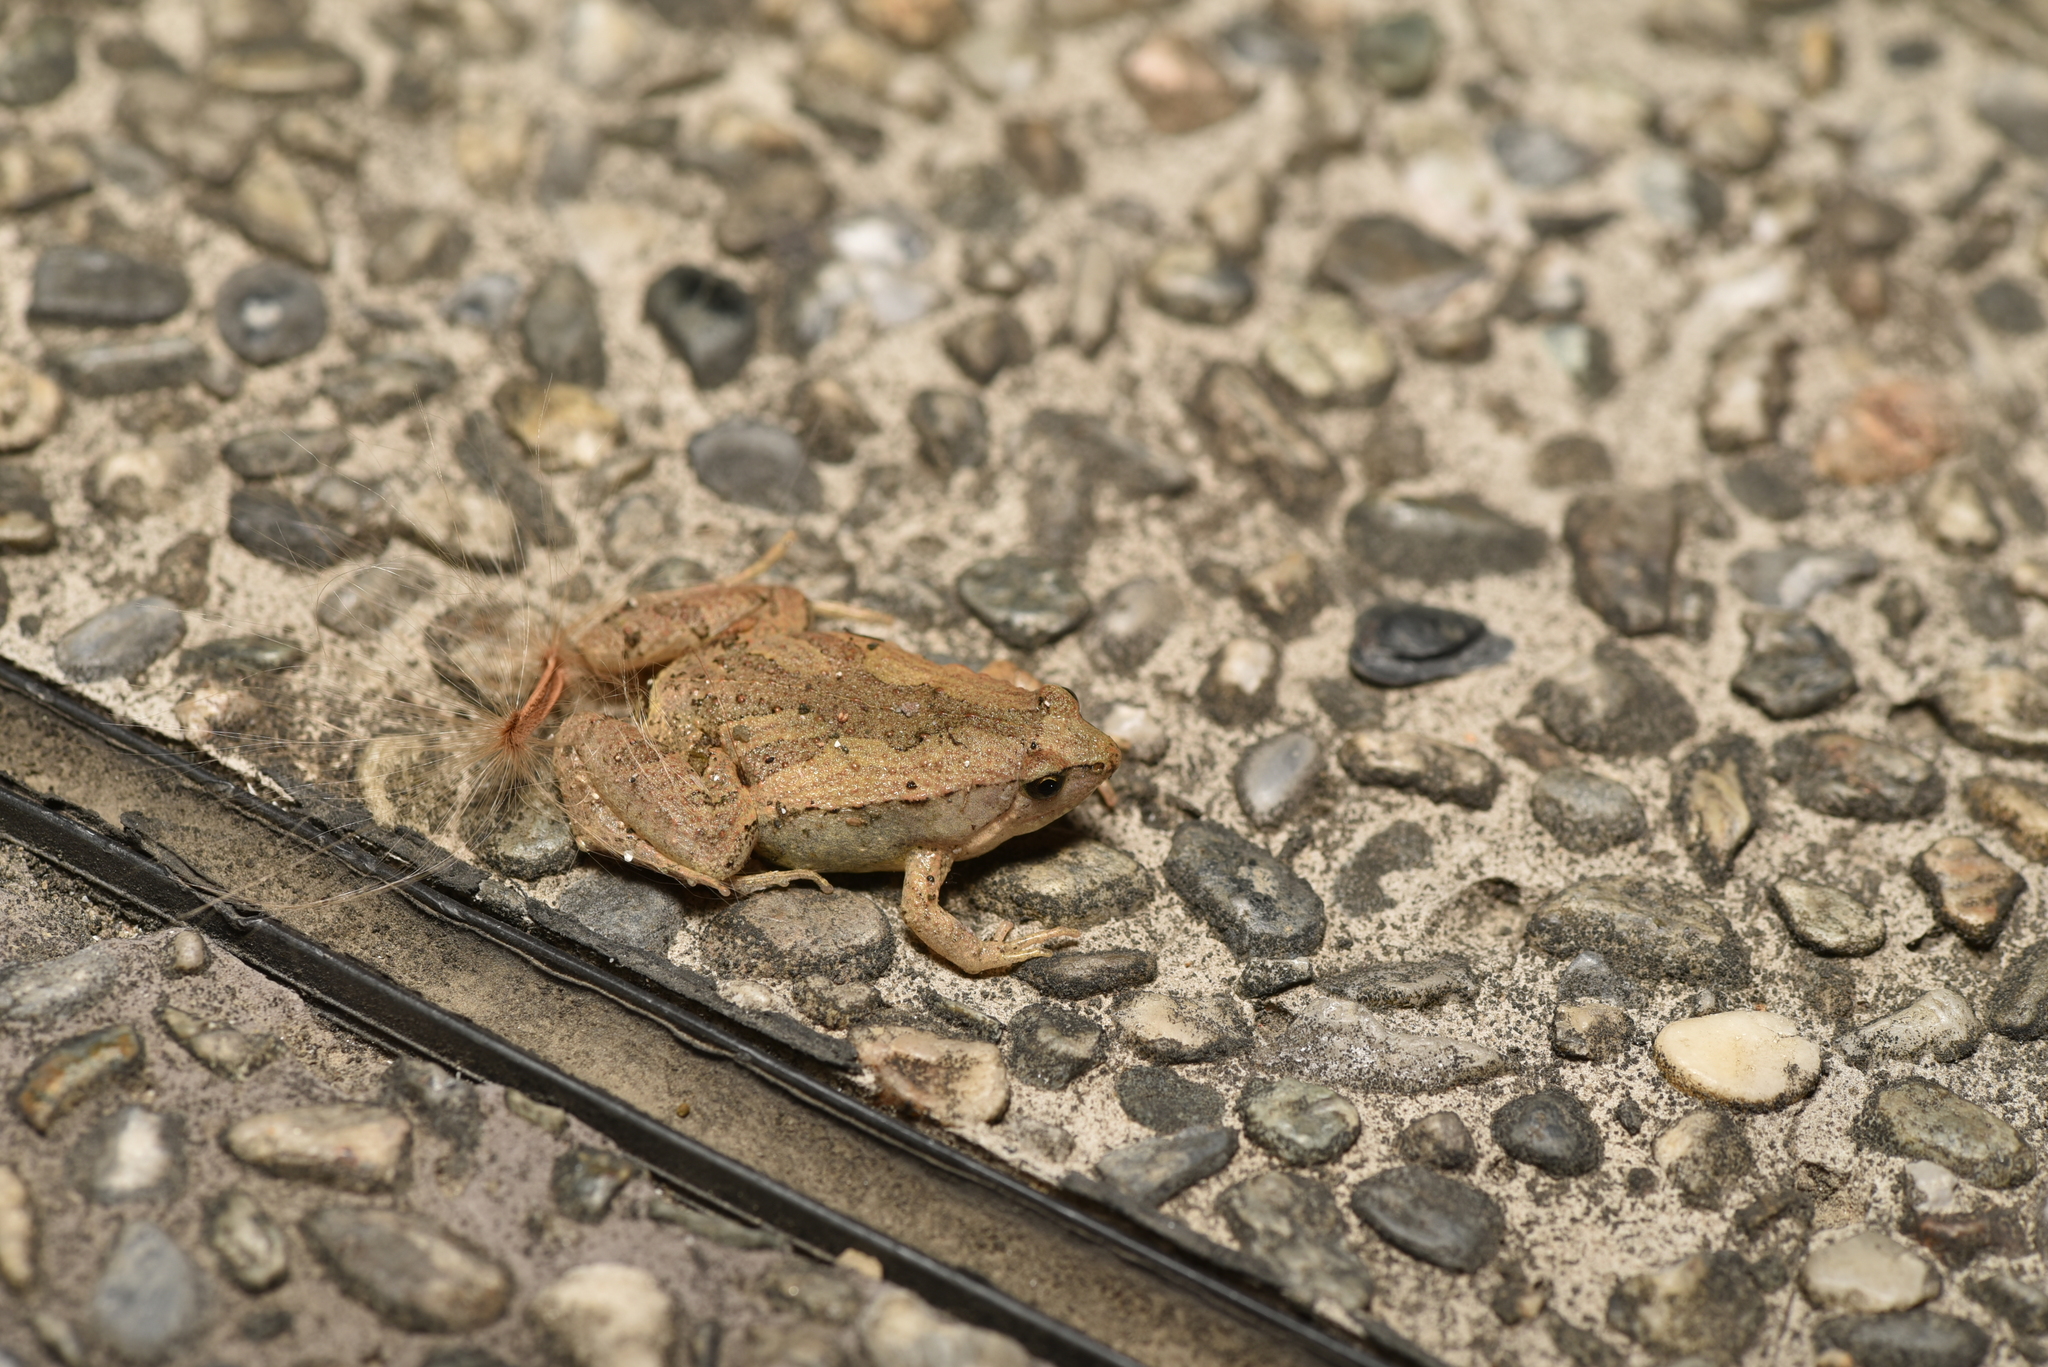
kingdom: Animalia
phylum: Chordata
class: Amphibia
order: Anura
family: Microhylidae
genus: Microhyla
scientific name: Microhyla fissipes
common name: Ornate narrow-mouthed frog
